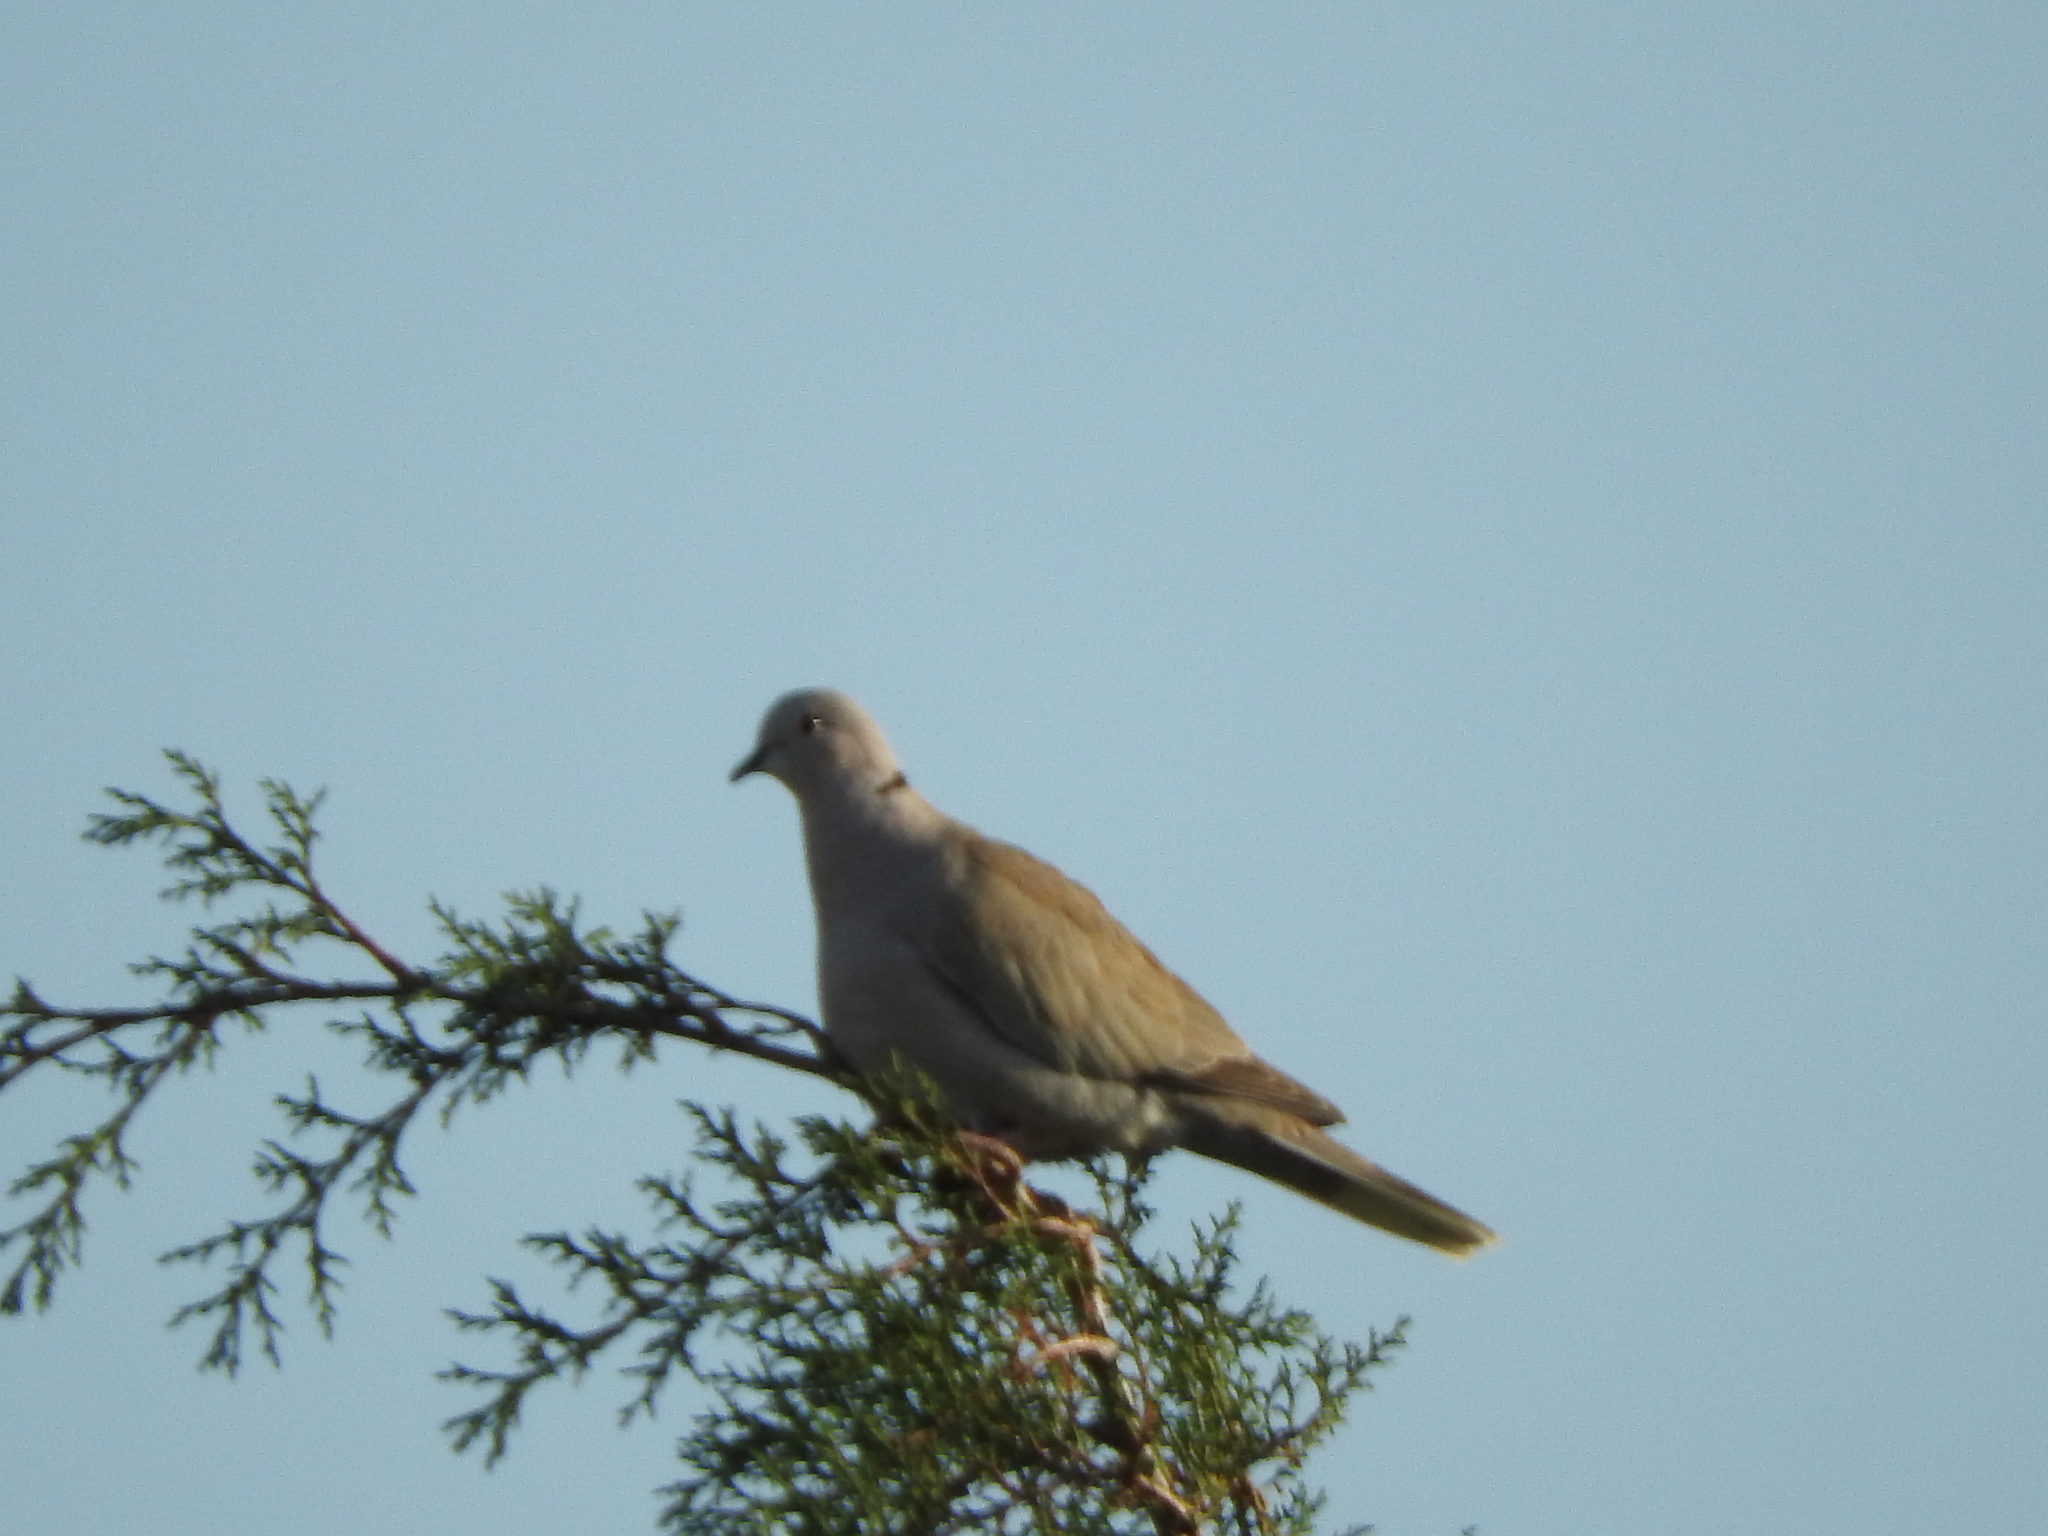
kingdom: Animalia
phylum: Chordata
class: Aves
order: Columbiformes
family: Columbidae
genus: Streptopelia
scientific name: Streptopelia decaocto
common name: Eurasian collared dove
